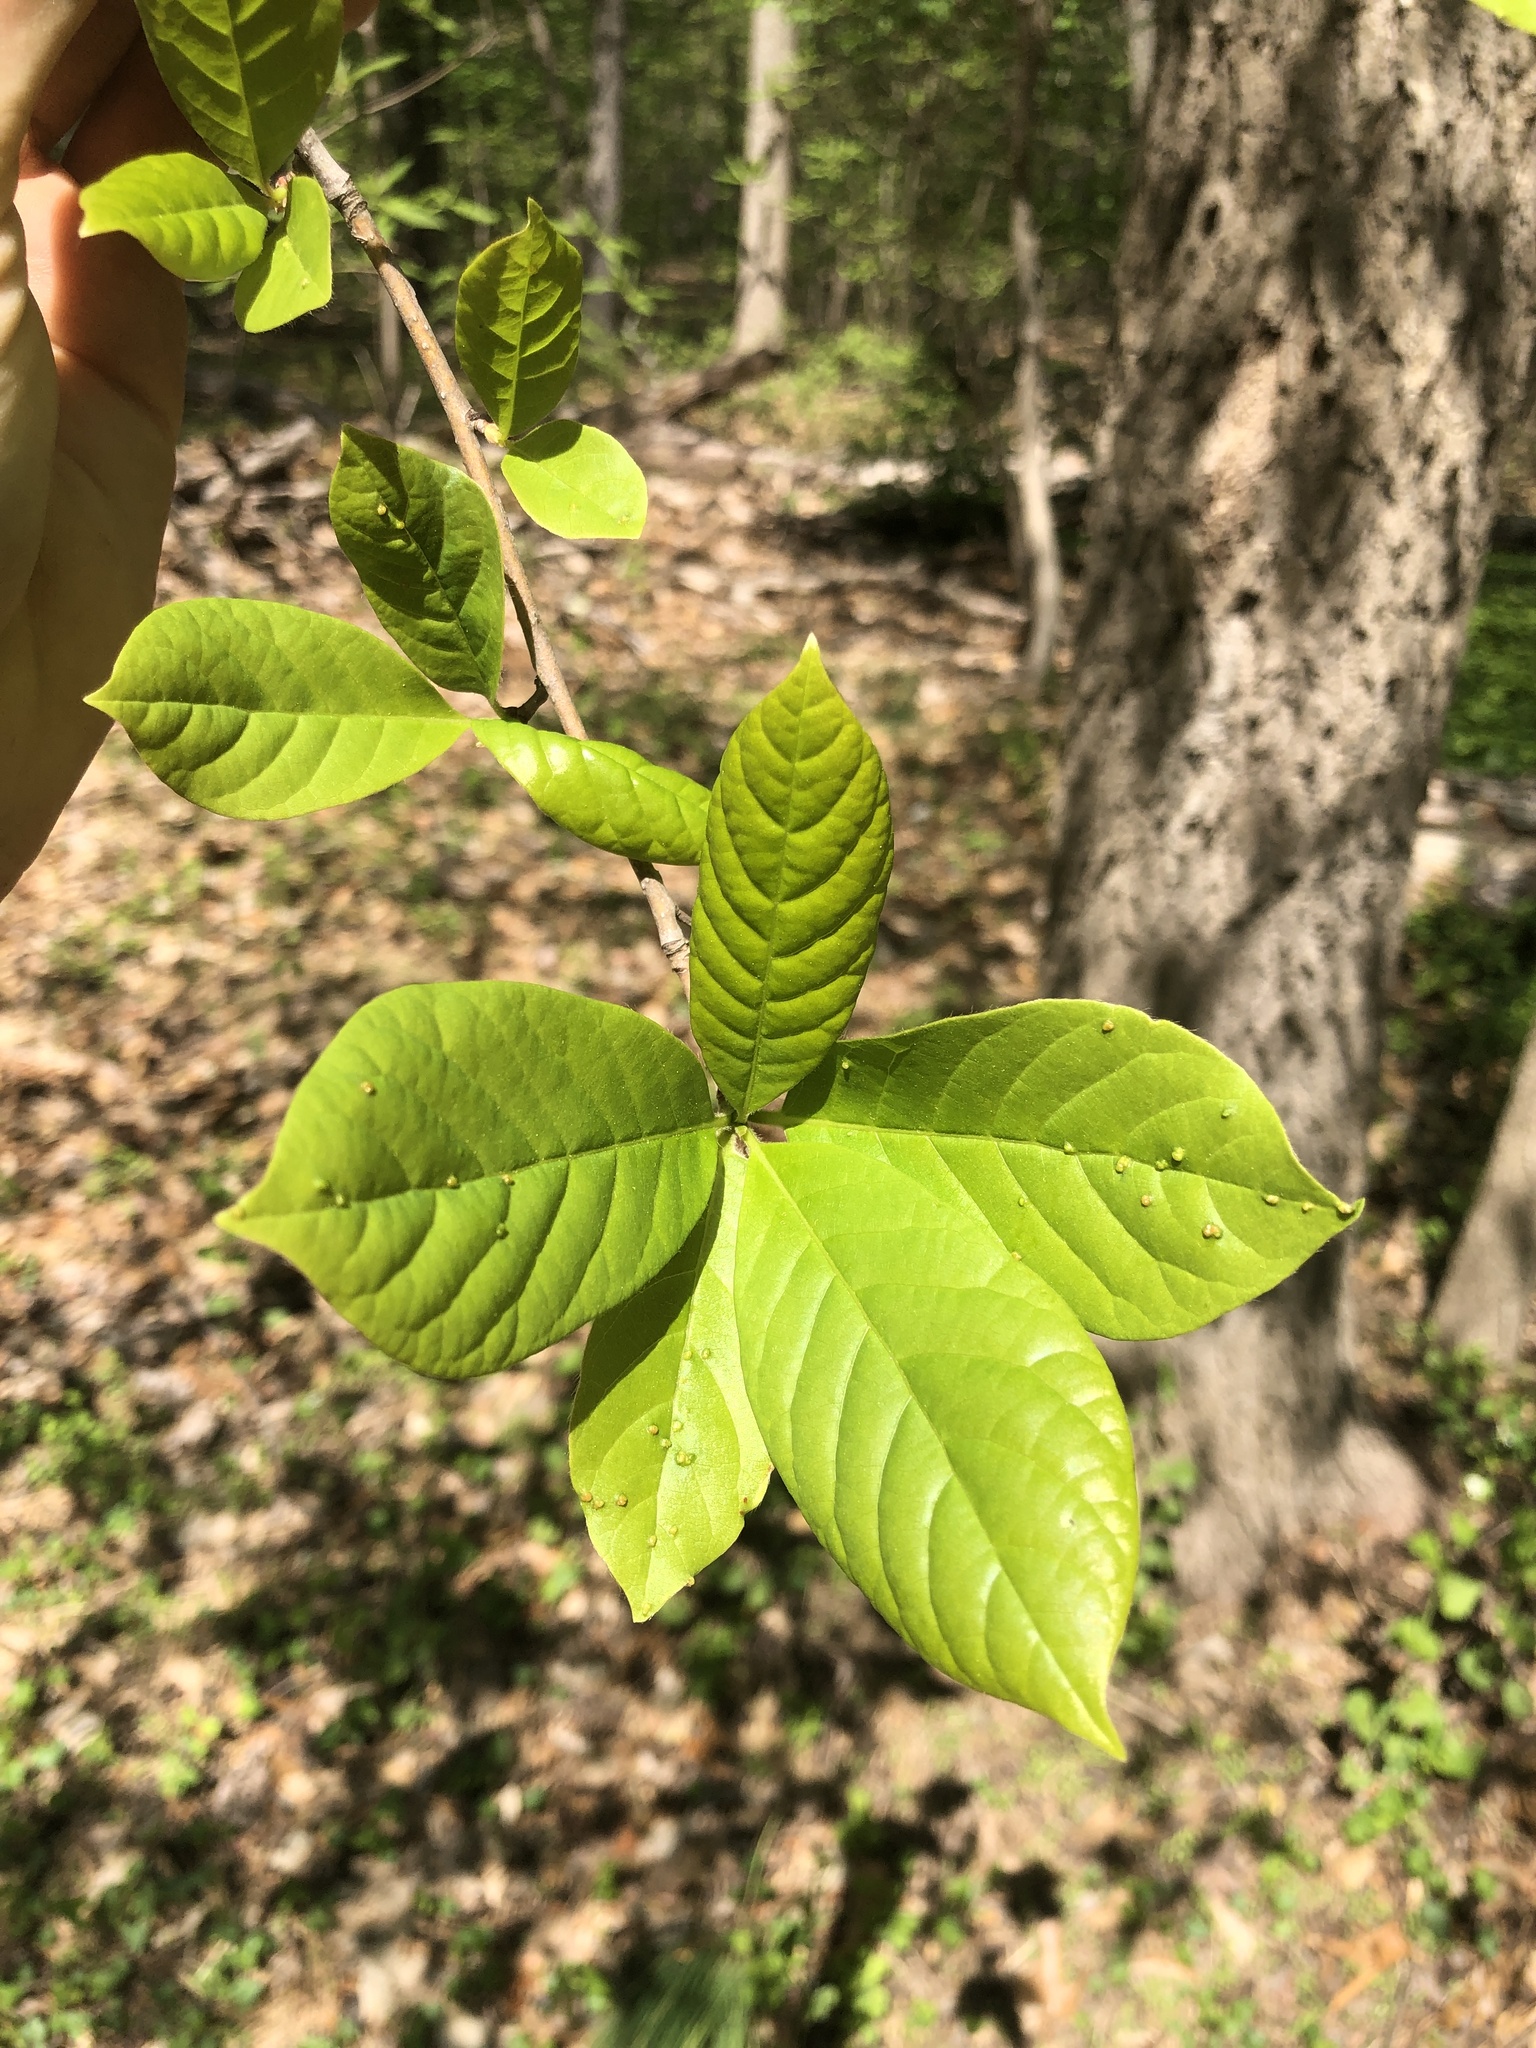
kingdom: Plantae
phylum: Tracheophyta
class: Magnoliopsida
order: Cornales
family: Nyssaceae
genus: Nyssa
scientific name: Nyssa sylvatica
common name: Black tupelo
